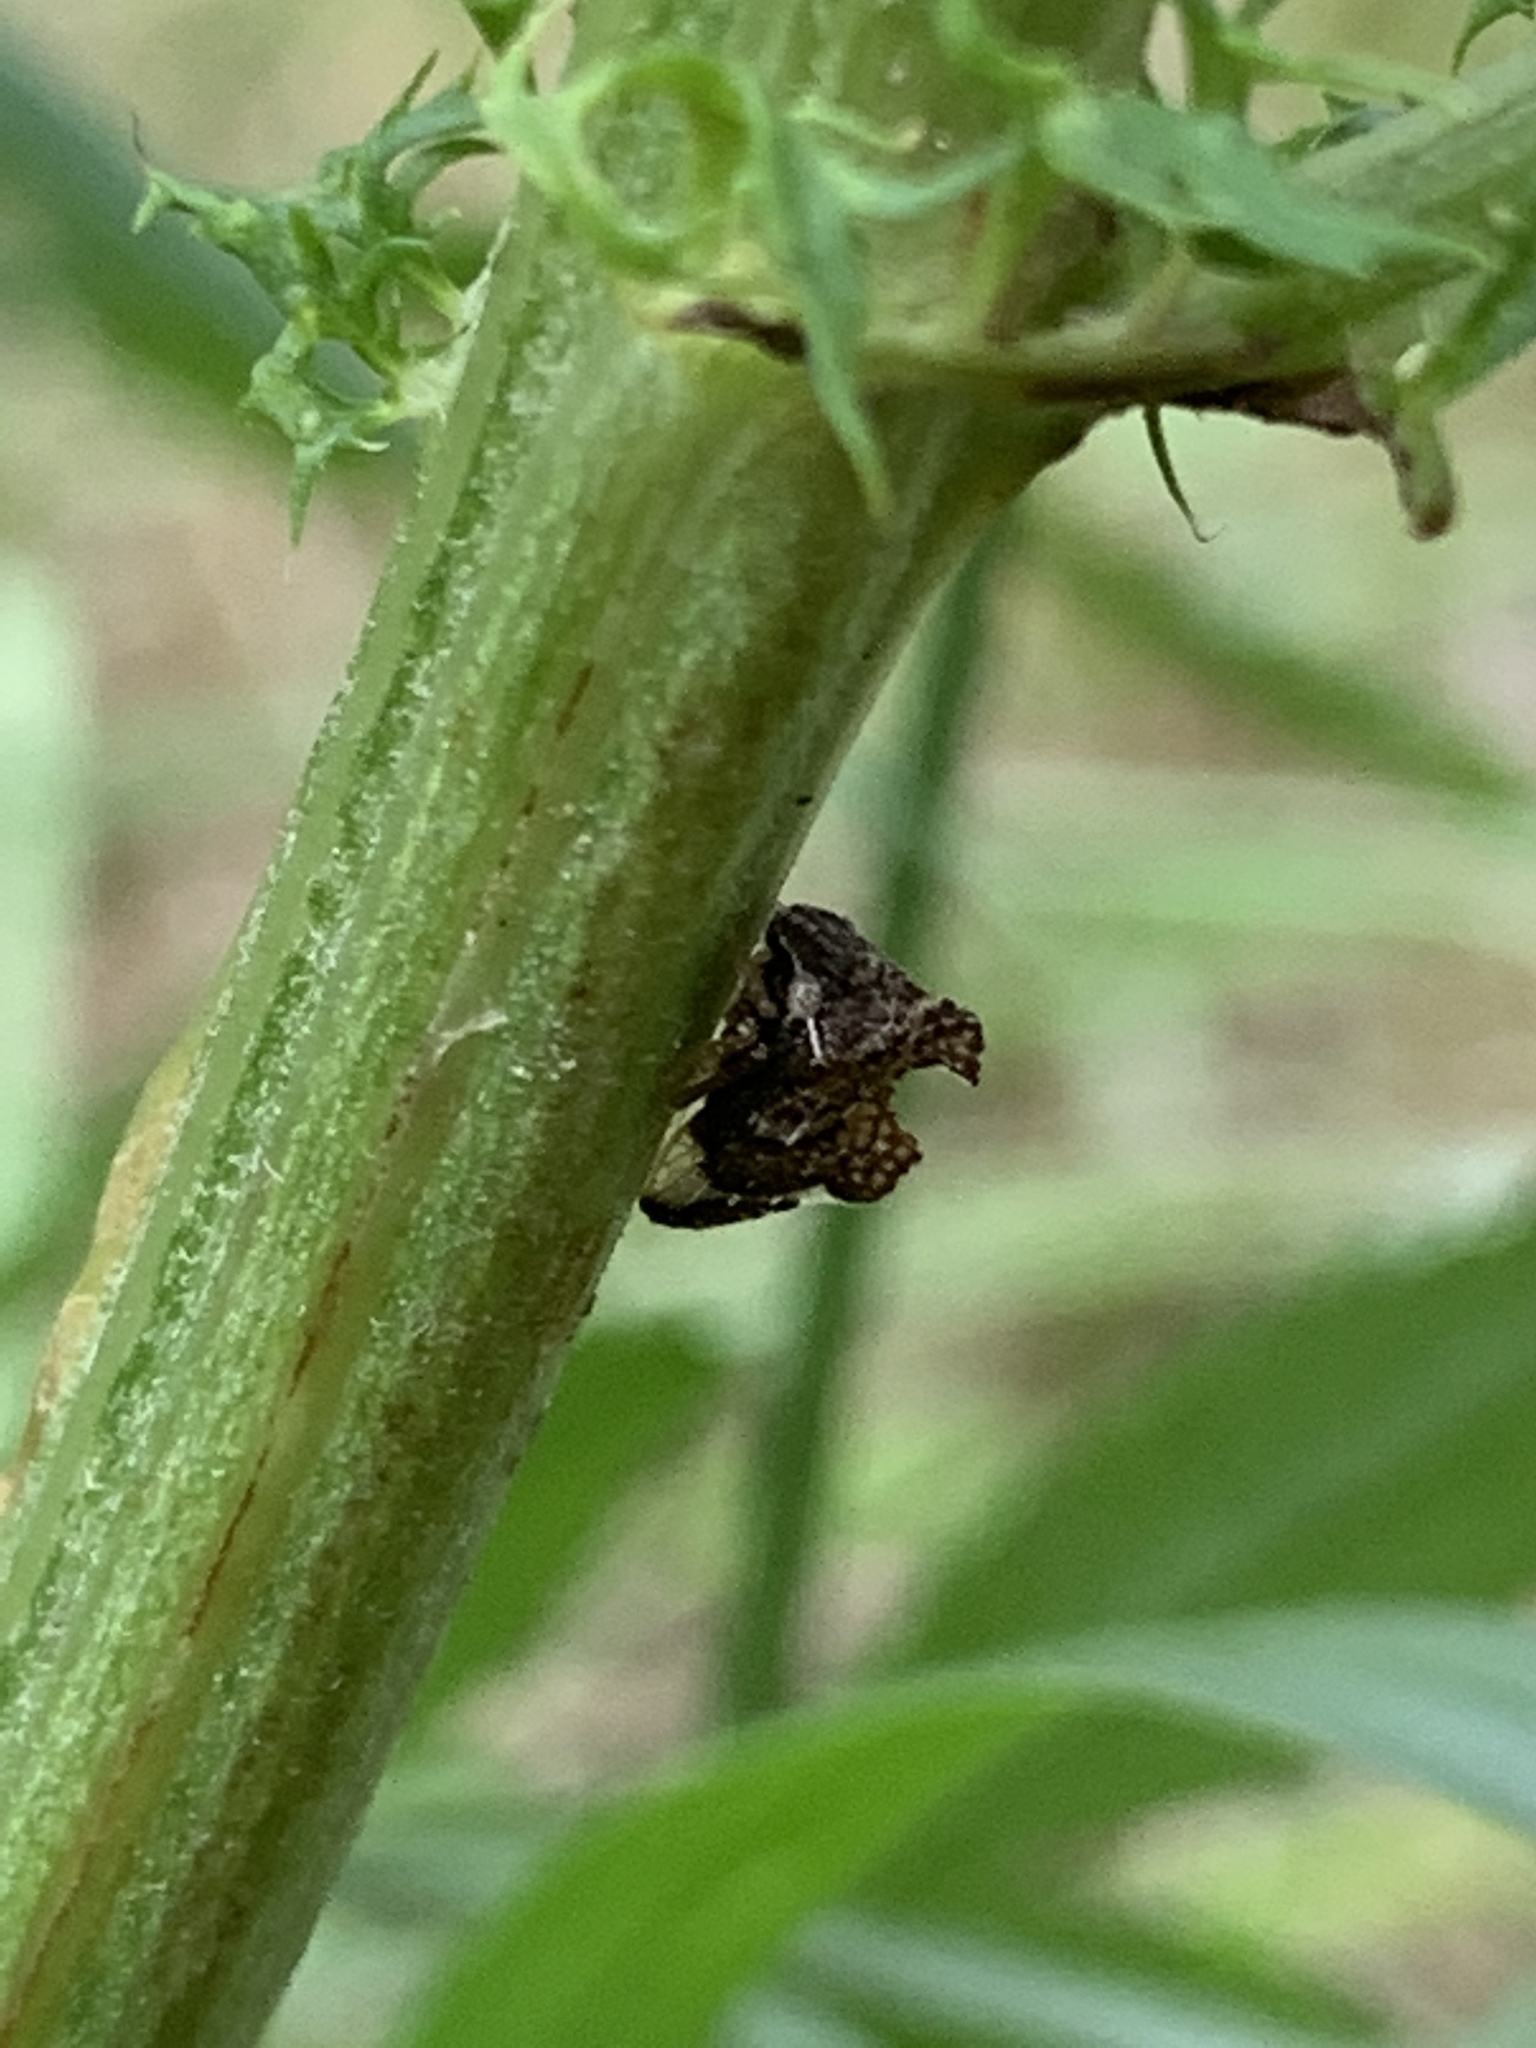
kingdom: Animalia
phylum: Arthropoda
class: Insecta
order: Hemiptera
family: Membracidae
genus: Entylia
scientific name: Entylia carinata
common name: Keeled treehopper
